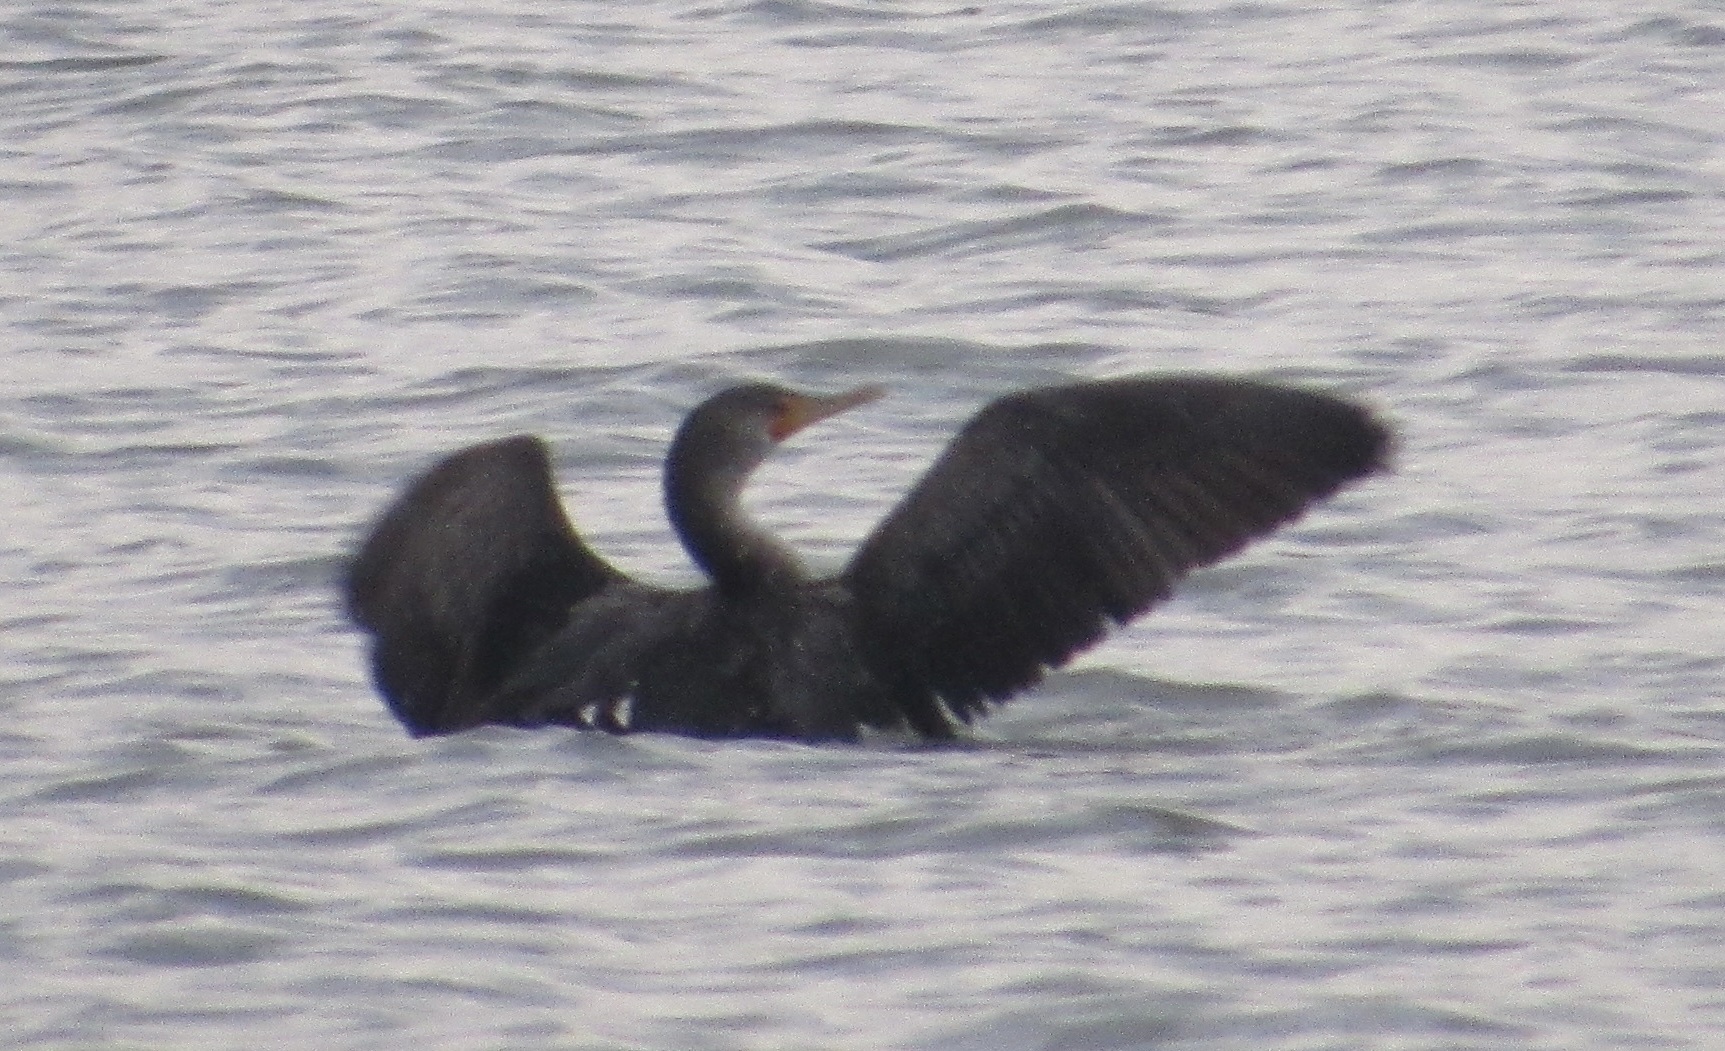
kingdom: Animalia
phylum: Chordata
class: Aves
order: Suliformes
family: Phalacrocoracidae
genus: Phalacrocorax
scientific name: Phalacrocorax auritus
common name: Double-crested cormorant
